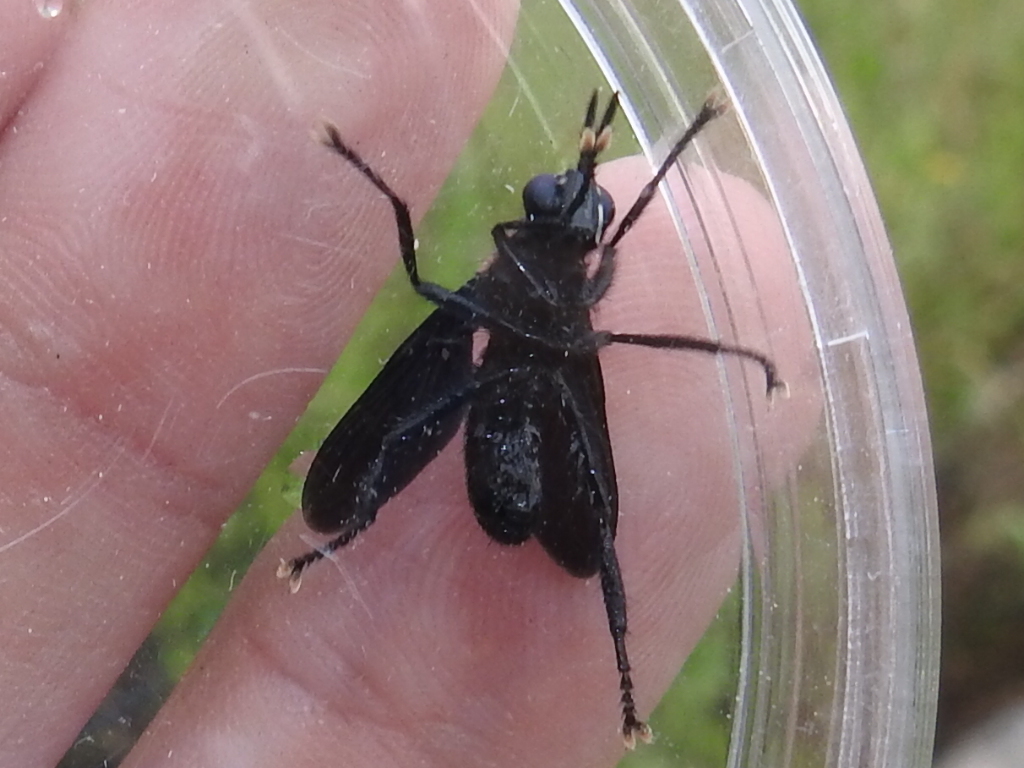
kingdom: Animalia
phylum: Arthropoda
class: Insecta
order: Diptera
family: Tachinidae
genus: Penthosia
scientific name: Penthosia satanica
